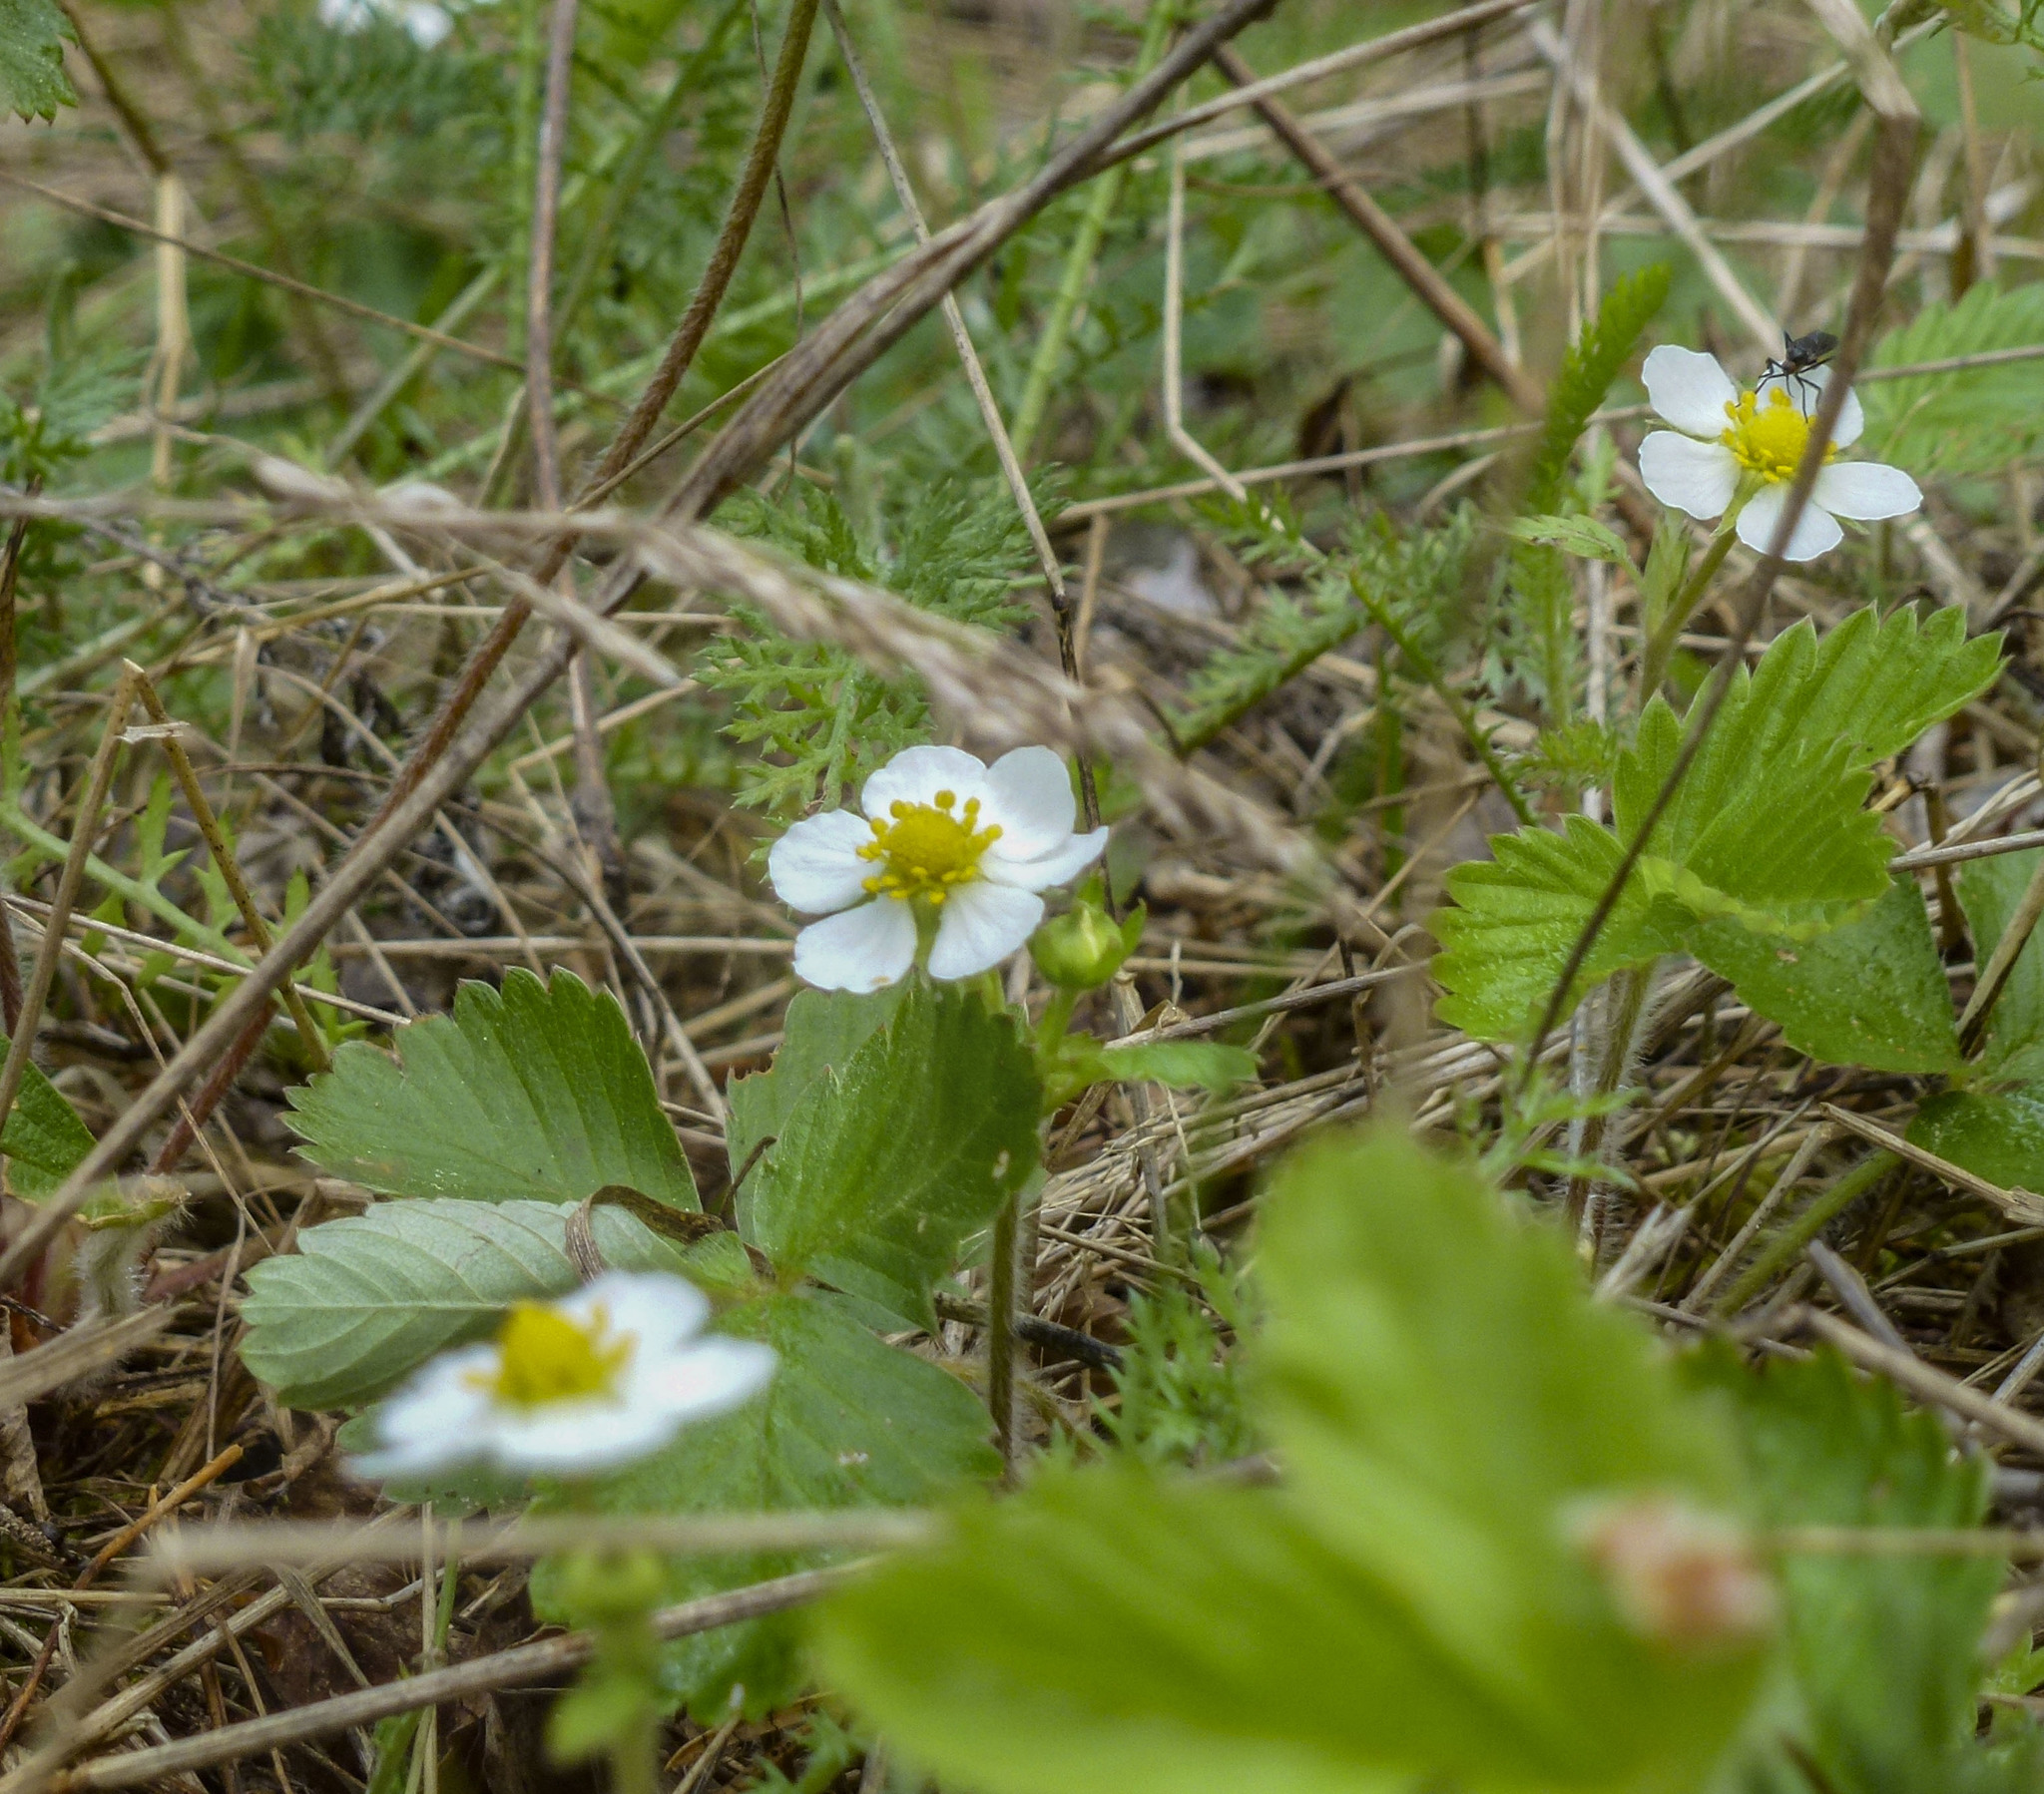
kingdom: Plantae
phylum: Tracheophyta
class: Magnoliopsida
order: Rosales
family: Rosaceae
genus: Fragaria
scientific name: Fragaria vesca
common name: Wild strawberry
